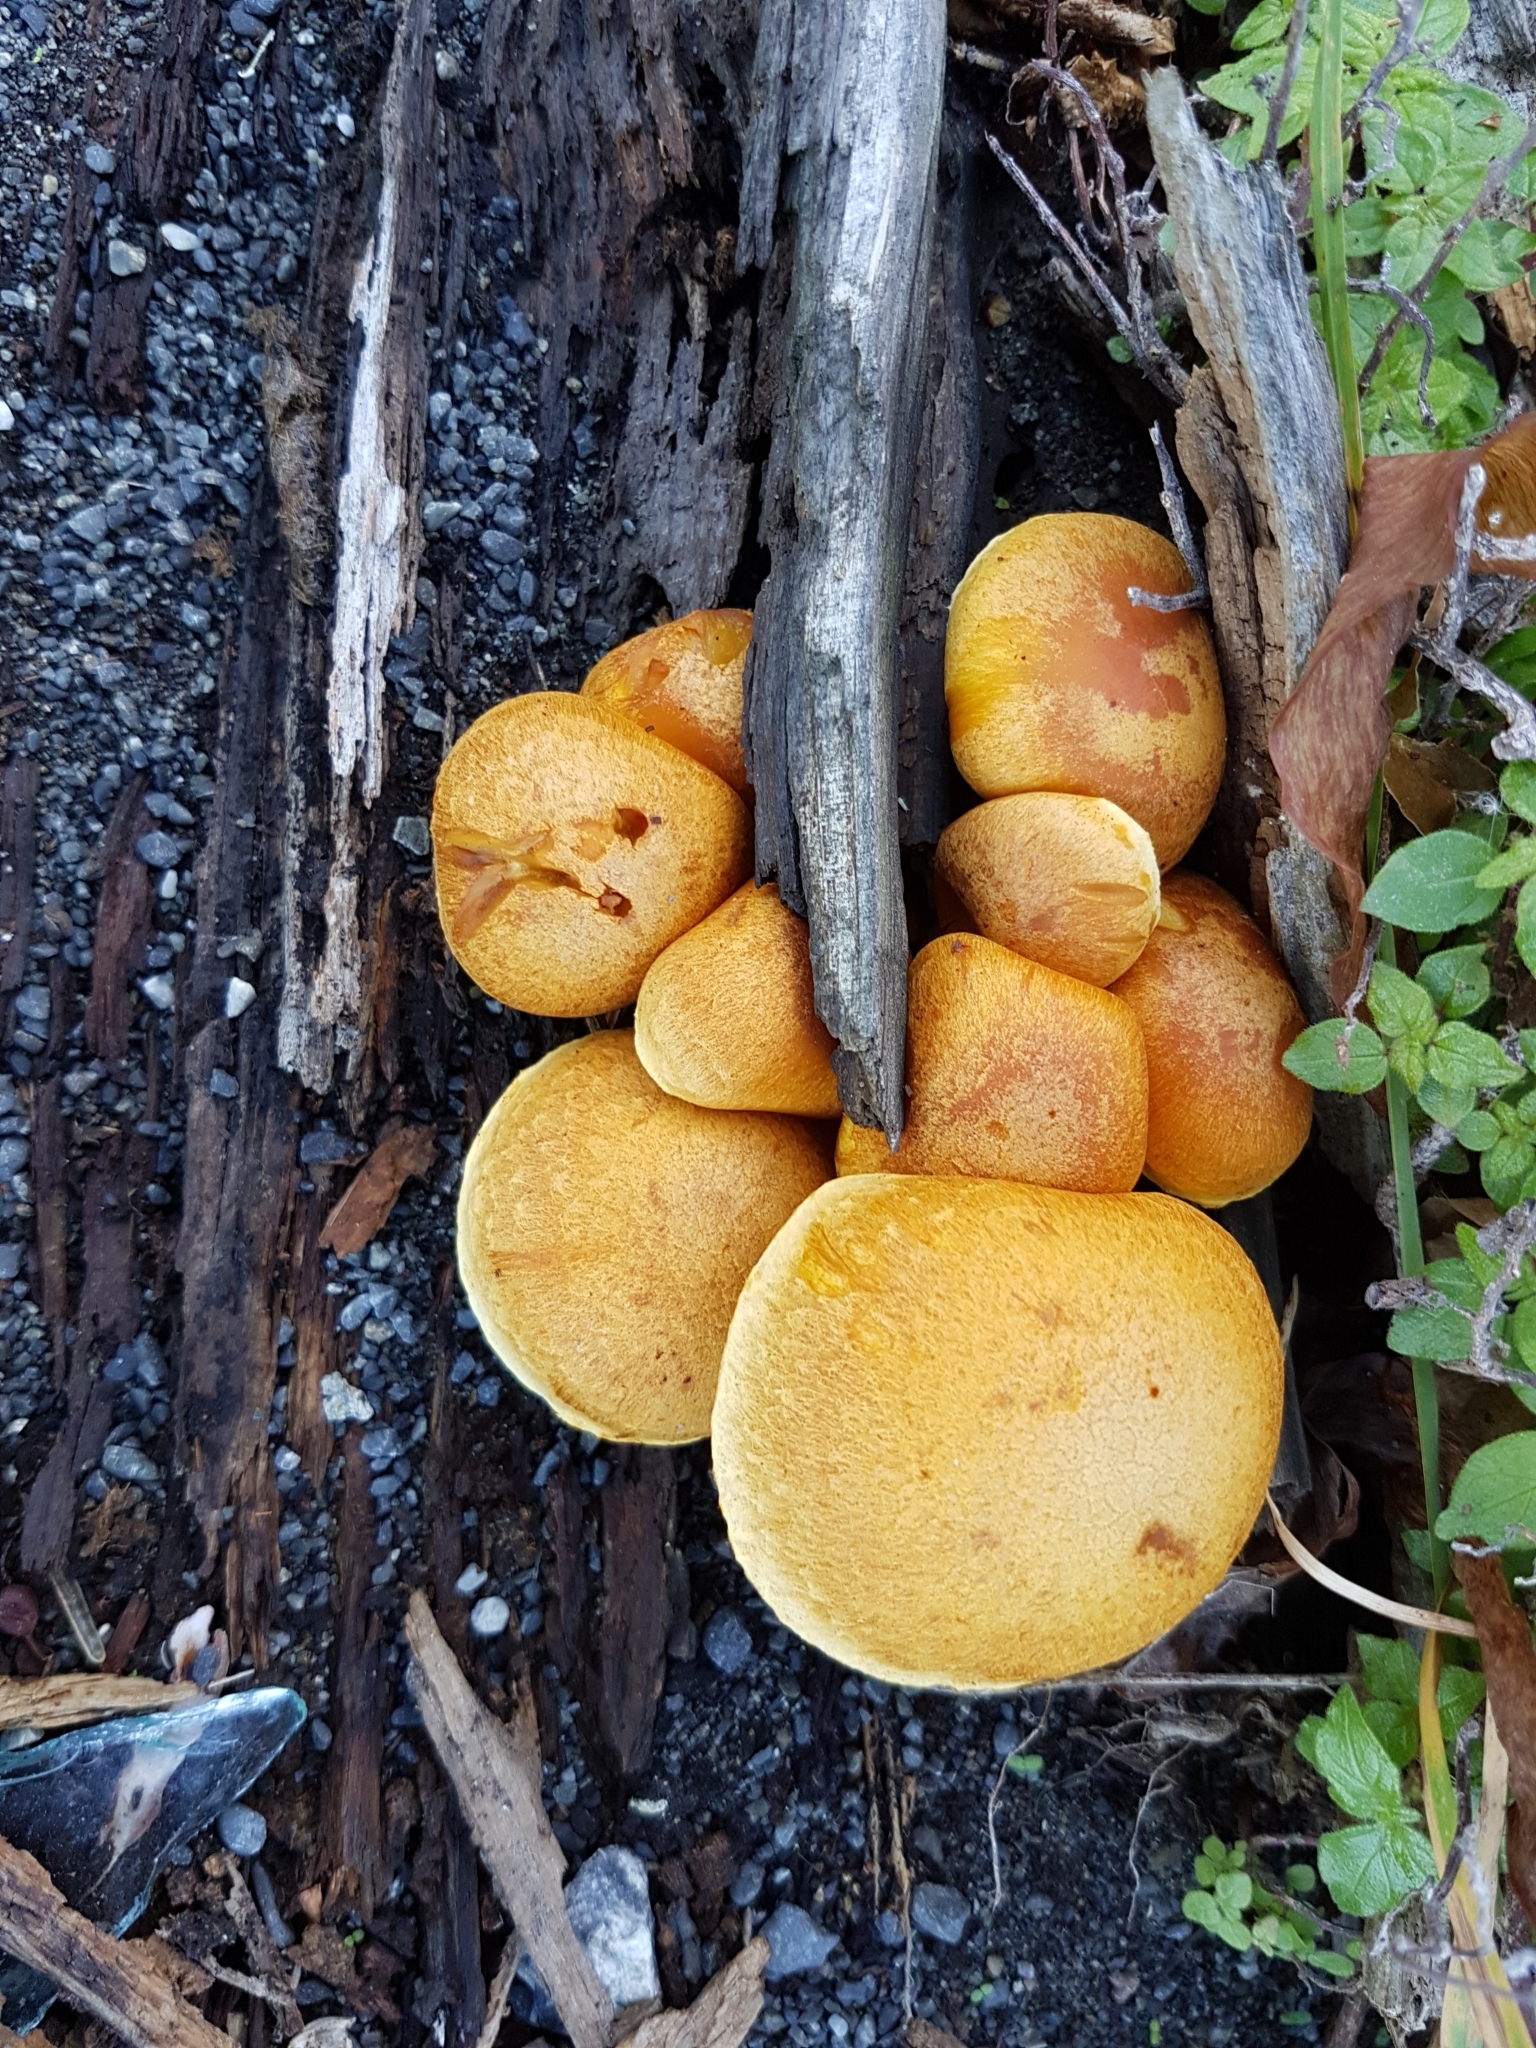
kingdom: Fungi
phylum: Basidiomycota
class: Agaricomycetes
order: Agaricales
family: Hymenogastraceae
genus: Gymnopilus
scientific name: Gymnopilus junonius
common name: Spectacular rustgill
